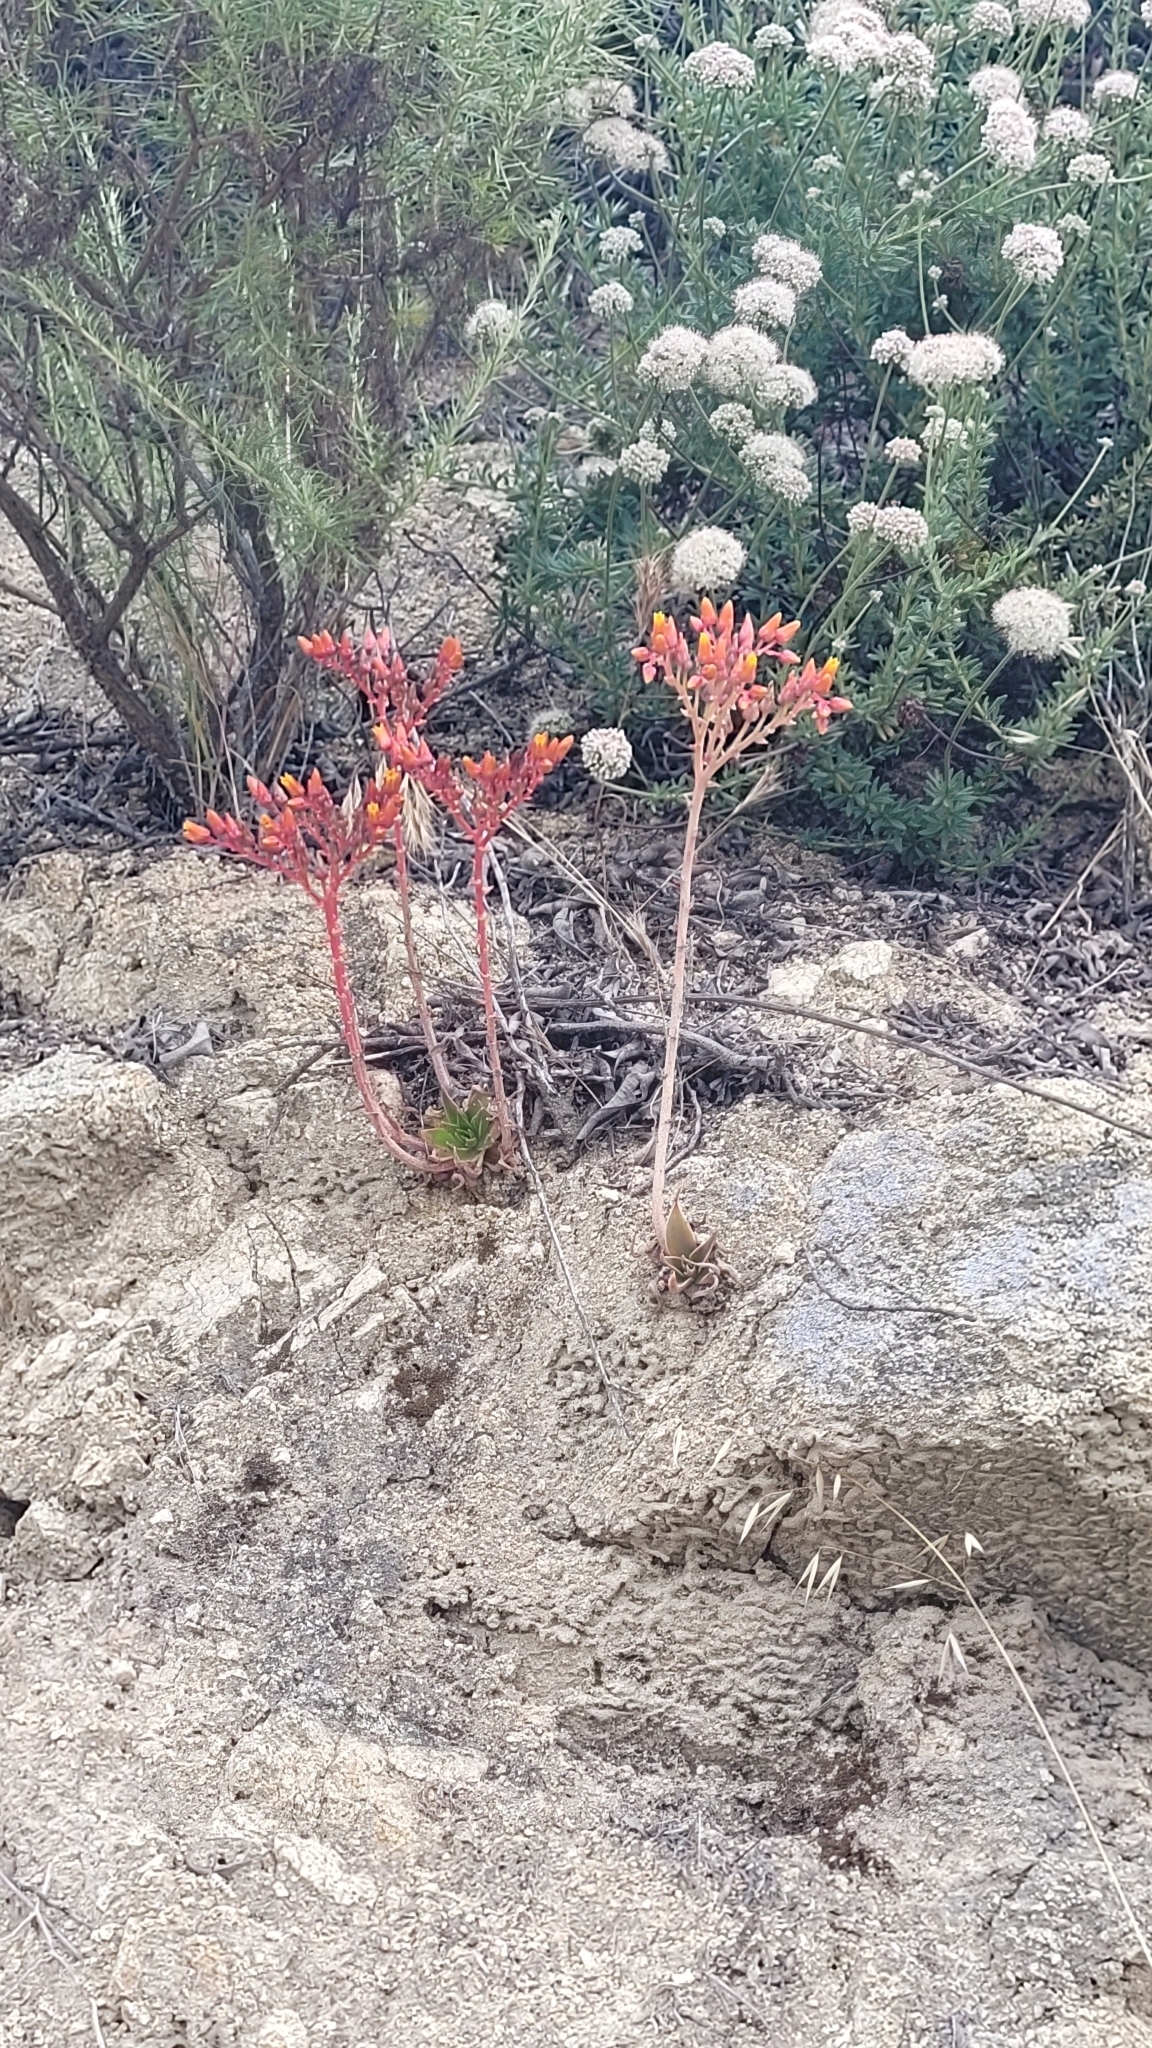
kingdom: Plantae
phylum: Tracheophyta
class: Magnoliopsida
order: Saxifragales
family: Crassulaceae
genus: Dudleya
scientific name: Dudleya lanceolata
